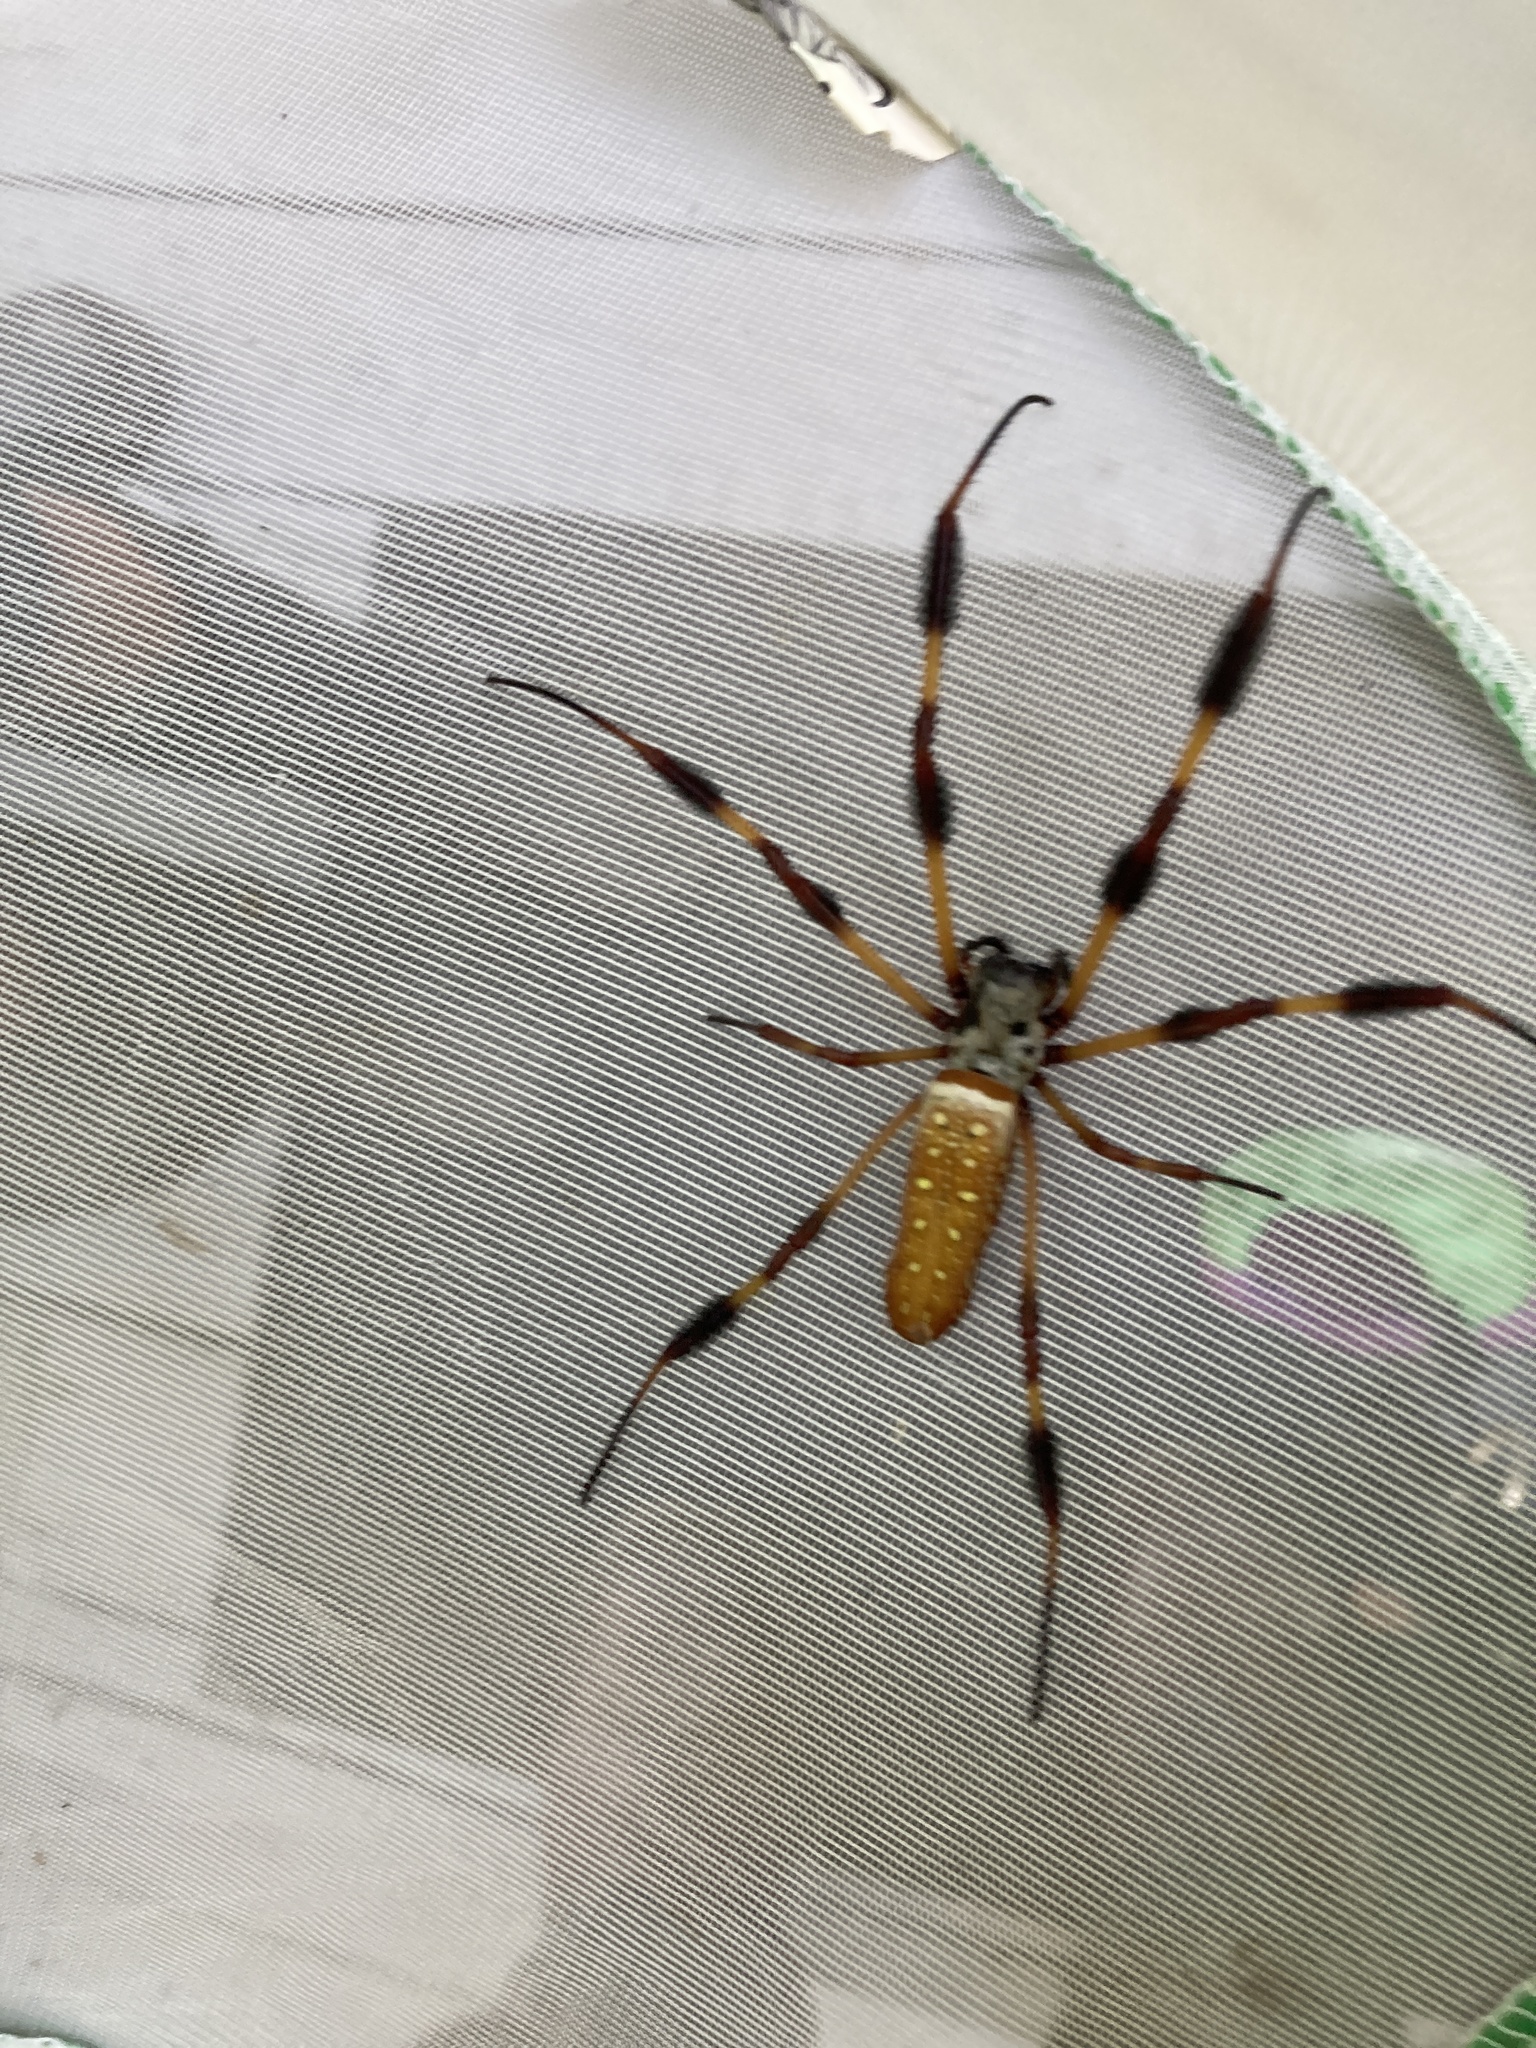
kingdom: Animalia
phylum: Arthropoda
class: Arachnida
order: Araneae
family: Araneidae
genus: Trichonephila
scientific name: Trichonephila clavipes
